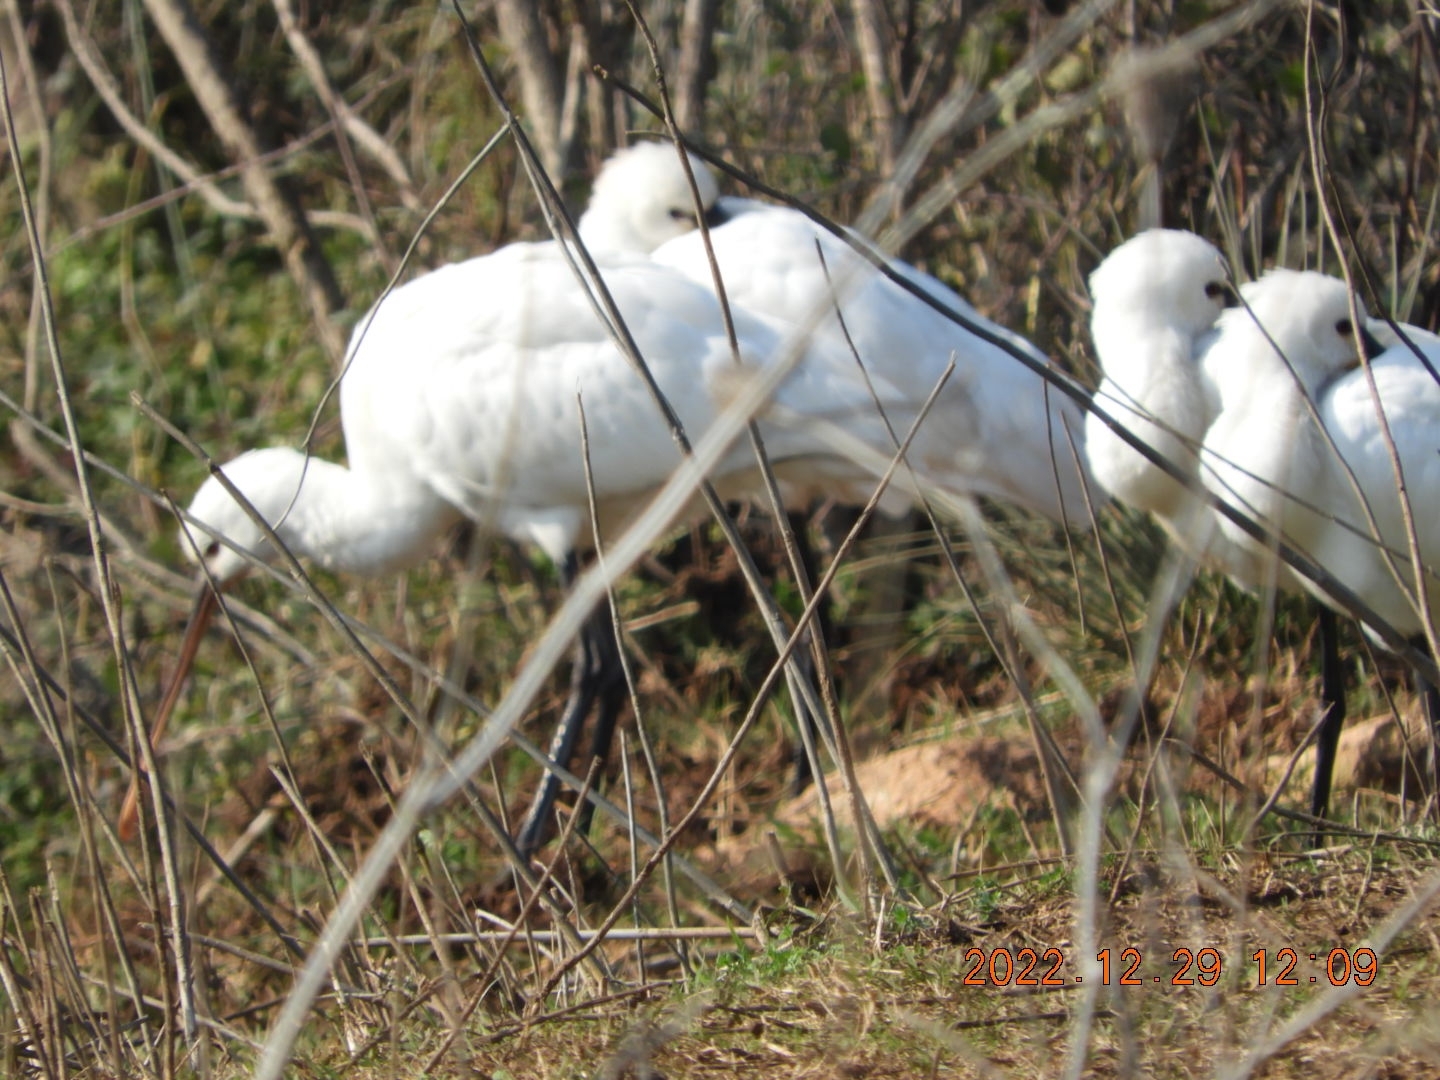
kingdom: Animalia
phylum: Chordata
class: Aves
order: Pelecaniformes
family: Threskiornithidae
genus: Platalea
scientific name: Platalea leucorodia
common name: Eurasian spoonbill
